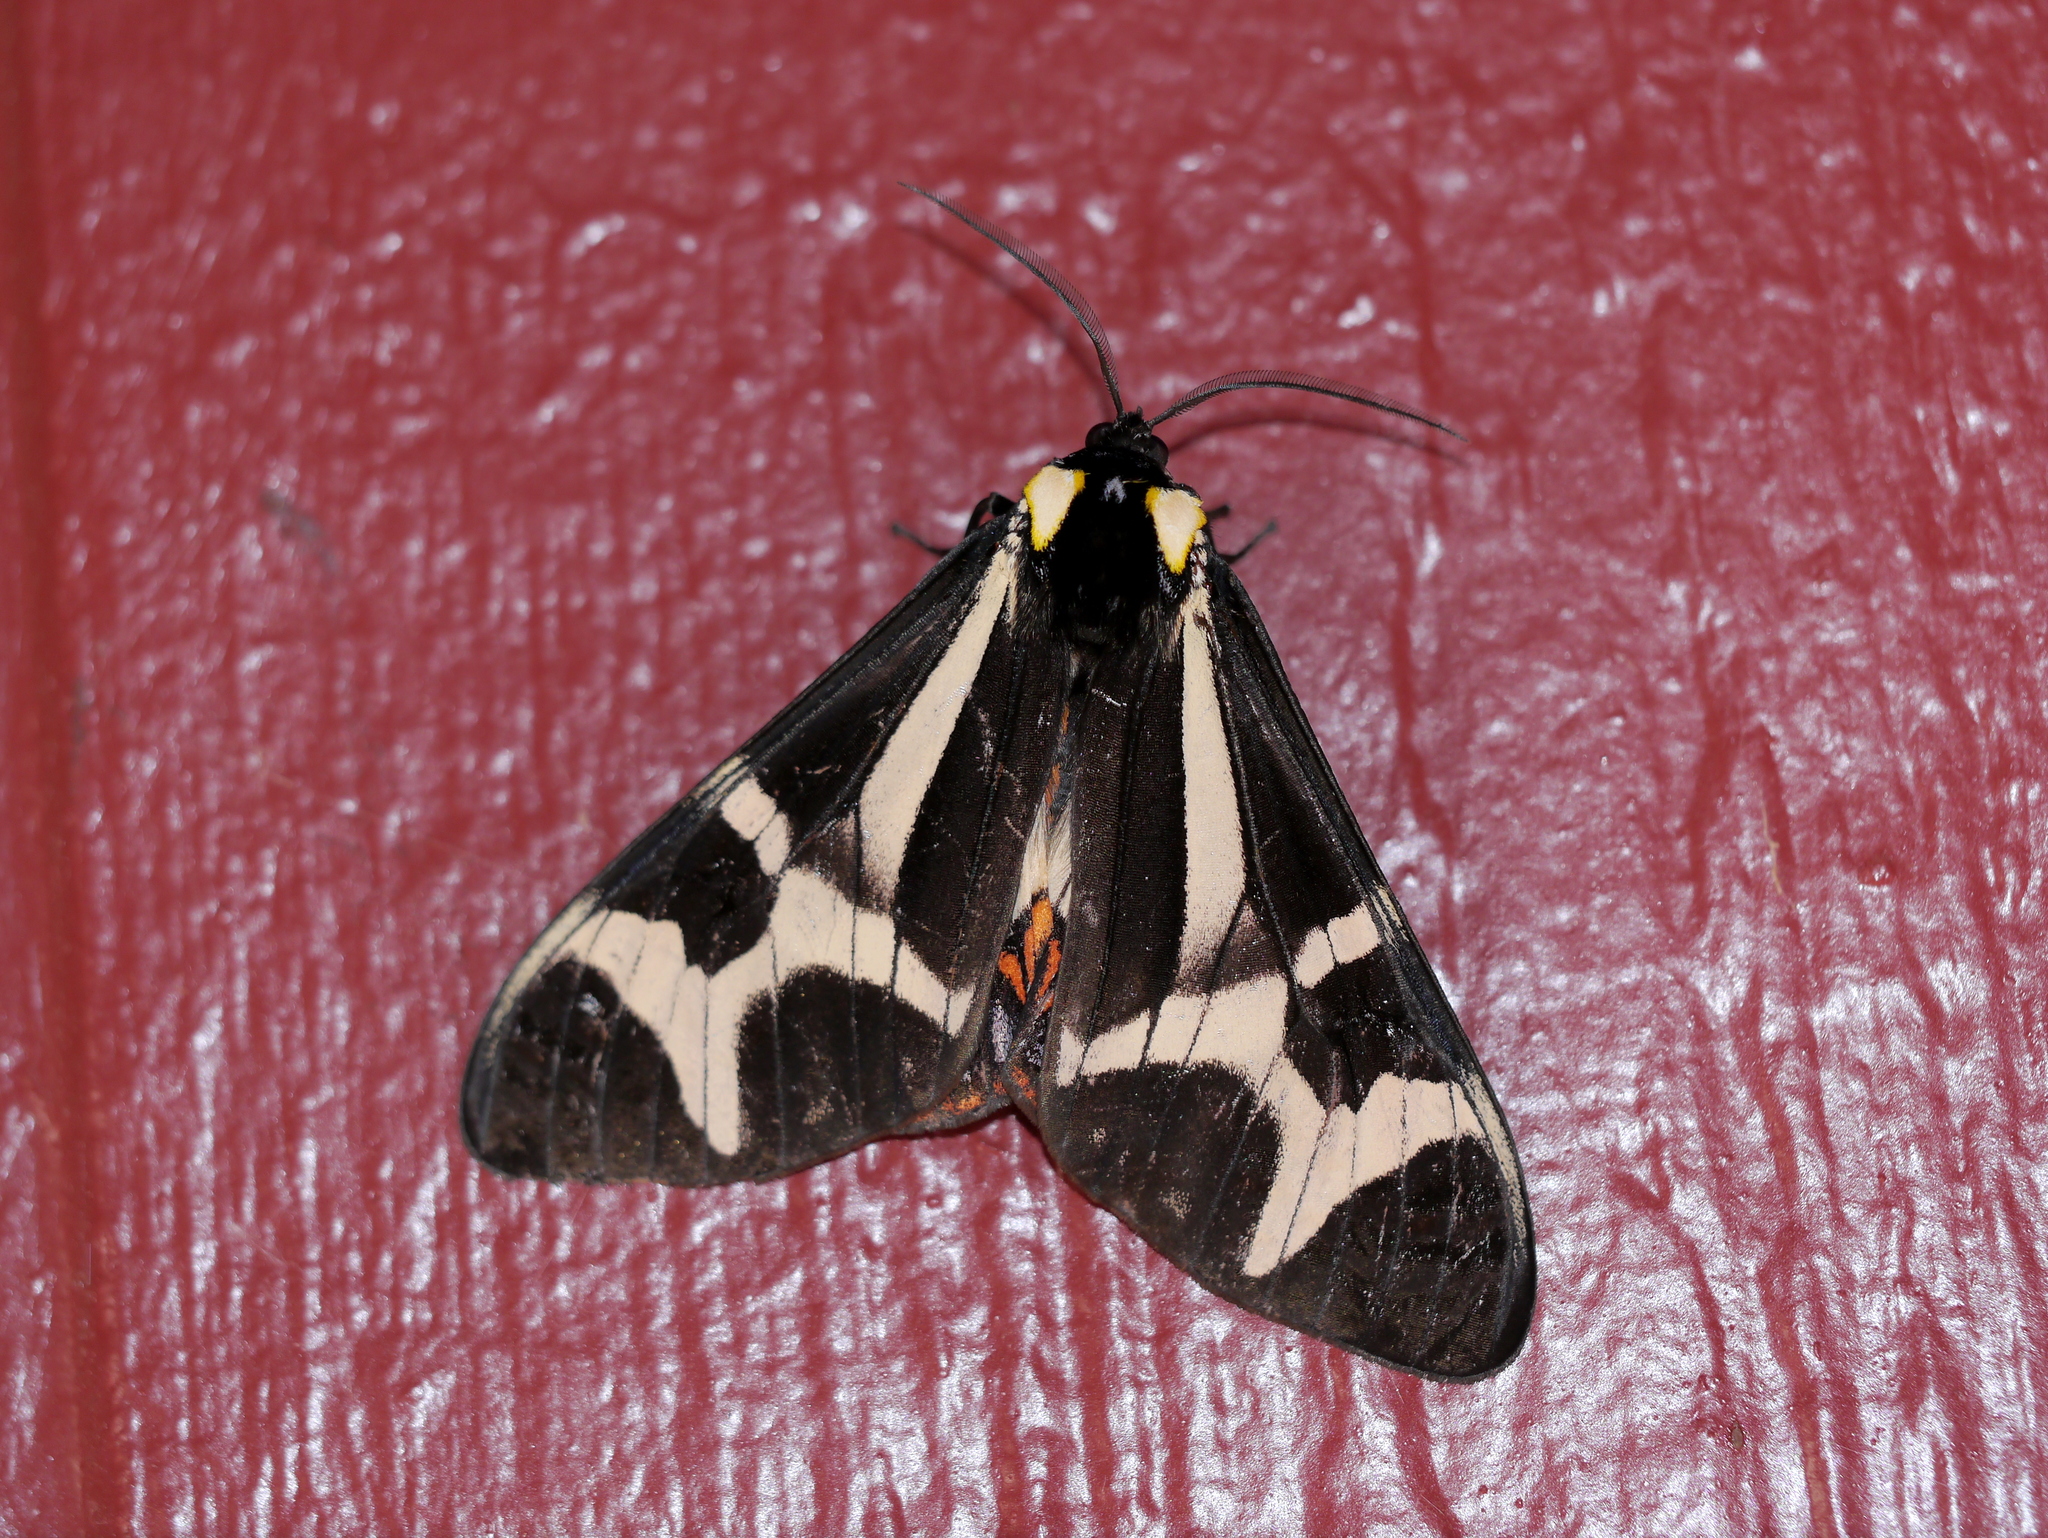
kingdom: Animalia
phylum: Arthropoda
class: Insecta
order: Lepidoptera
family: Erebidae
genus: Dysschema
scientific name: Dysschema howardi
